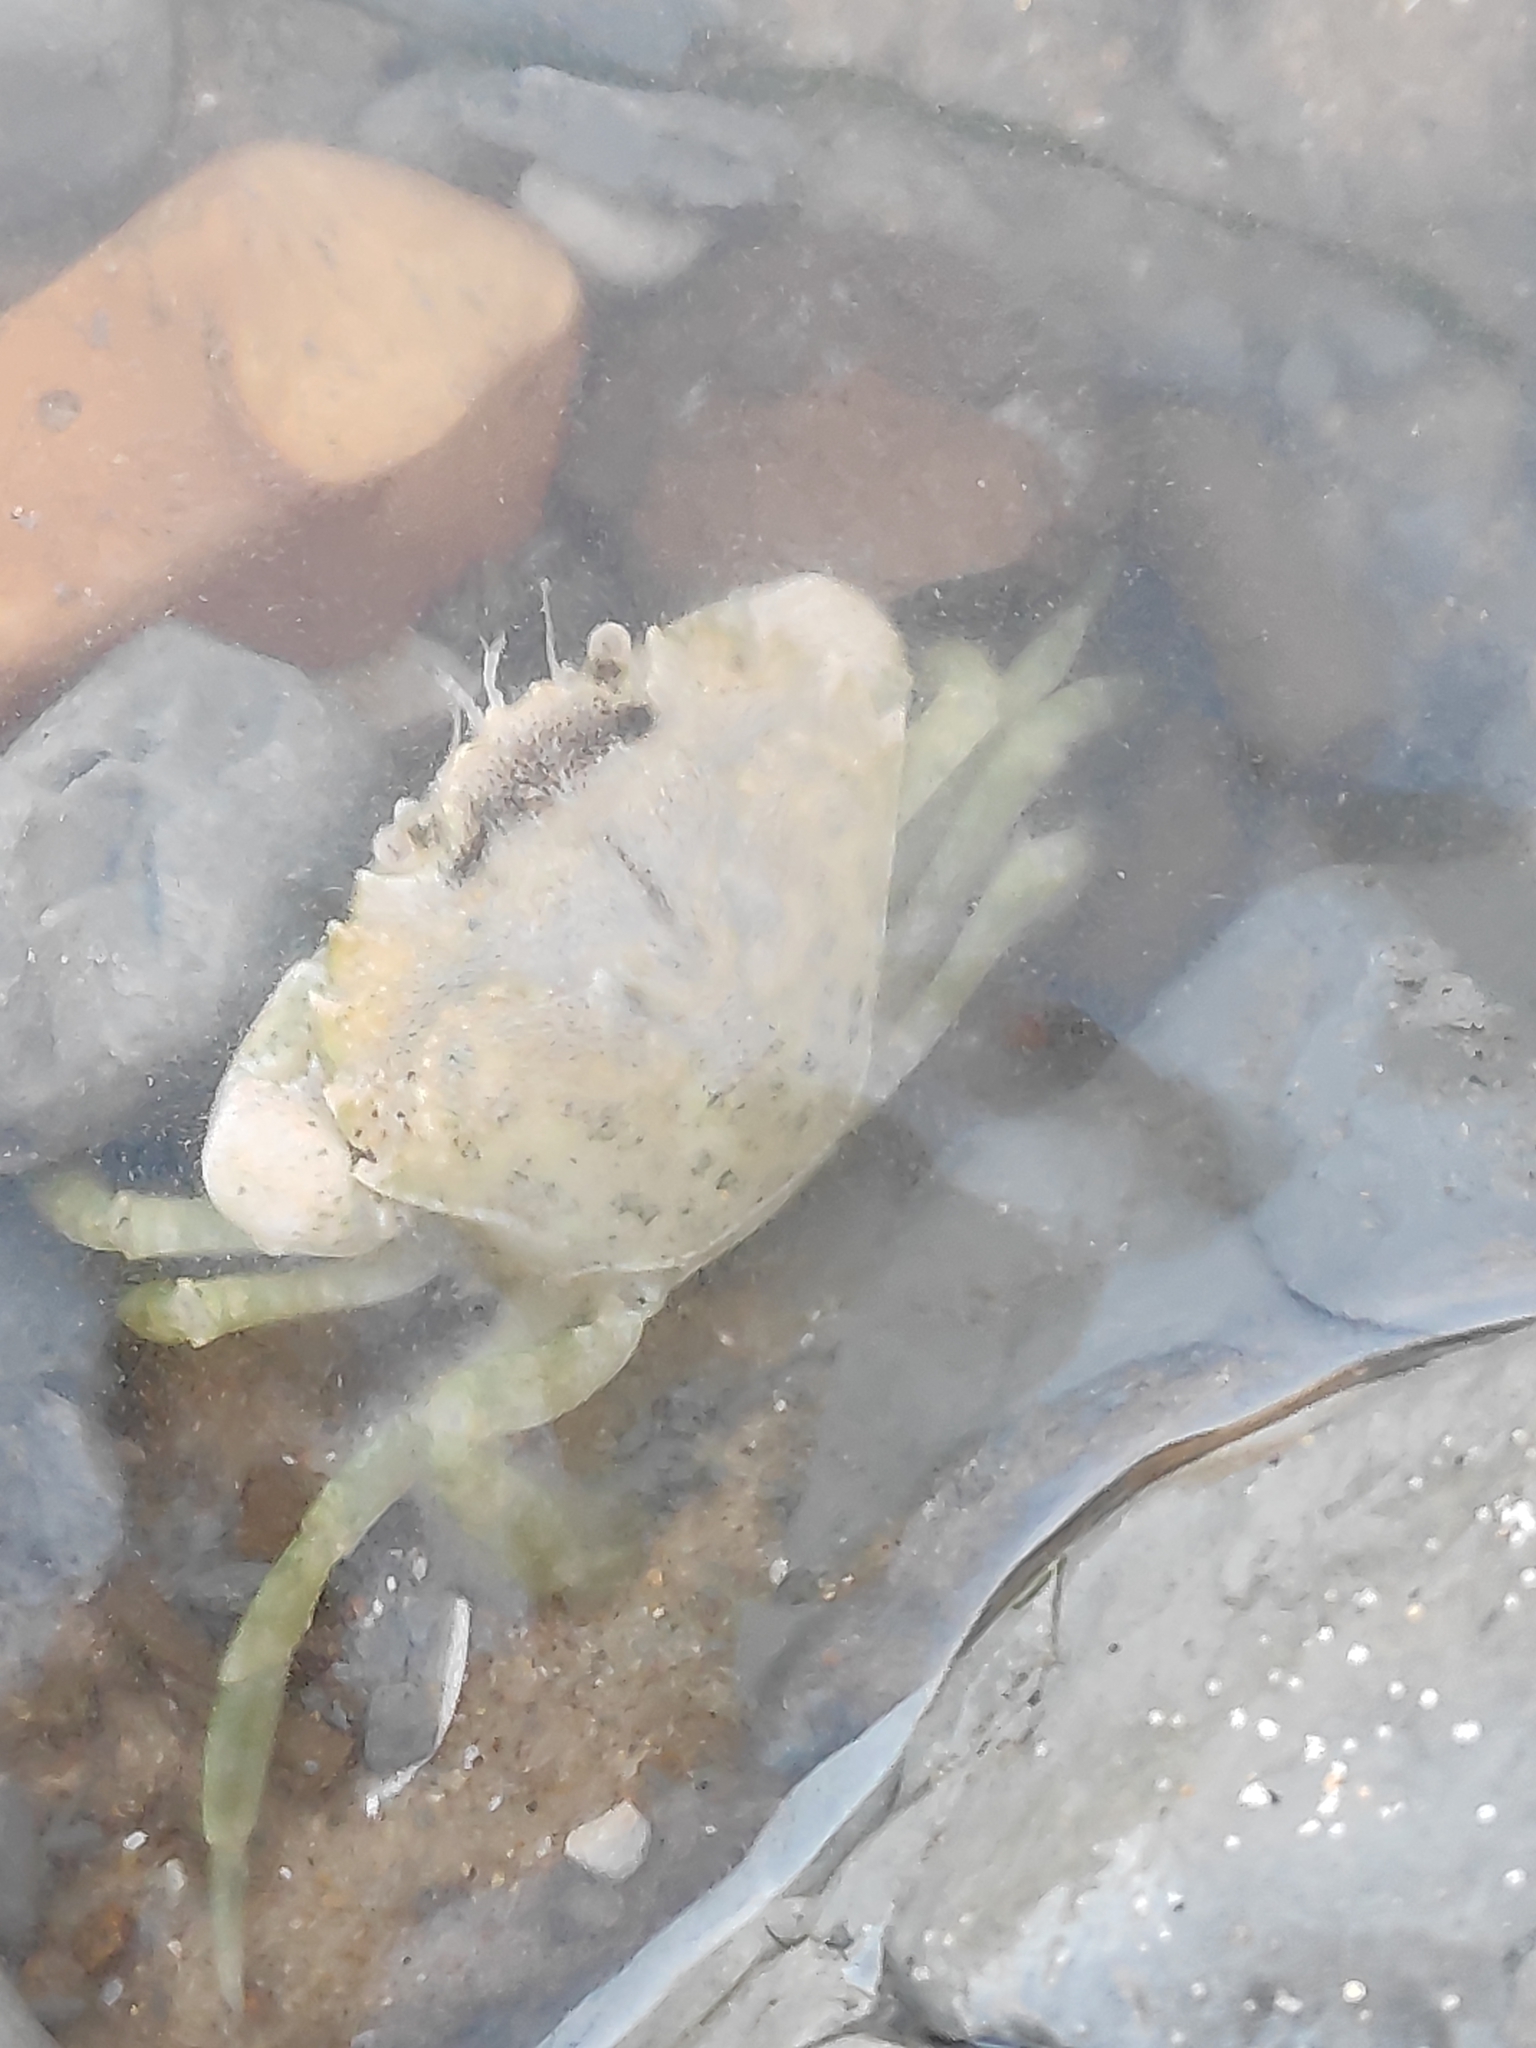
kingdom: Animalia
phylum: Arthropoda
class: Malacostraca
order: Decapoda
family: Carcinidae
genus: Carcinus
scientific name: Carcinus maenas
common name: European green crab
